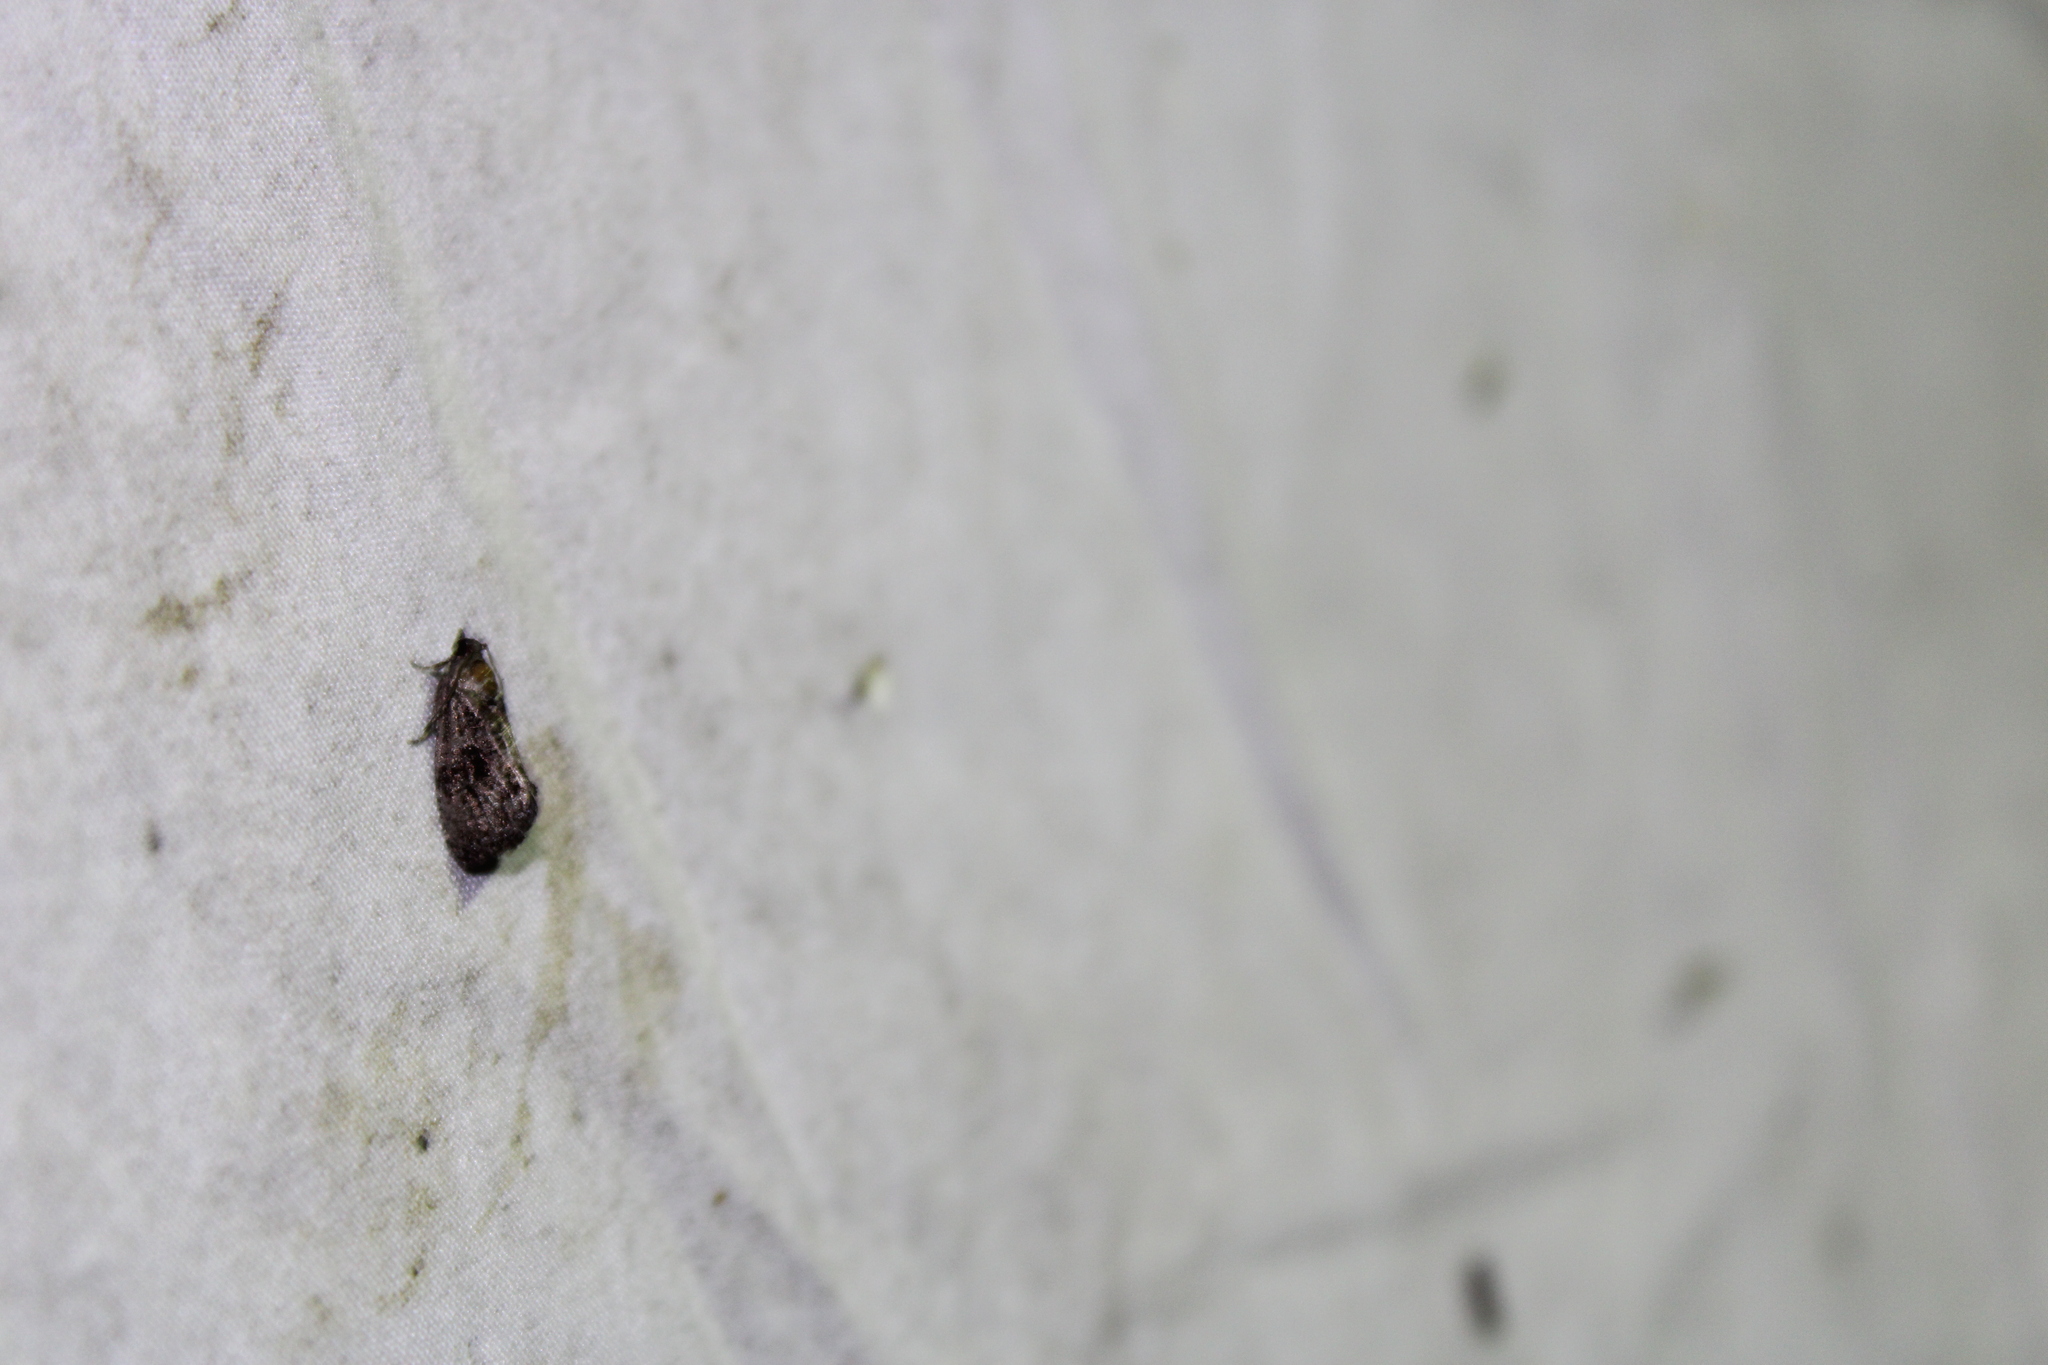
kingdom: Animalia
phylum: Arthropoda
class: Insecta
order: Lepidoptera
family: Tortricidae
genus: Gymnandrosoma
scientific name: Gymnandrosoma punctidiscanum
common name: Dotted ecdytolopha moth
